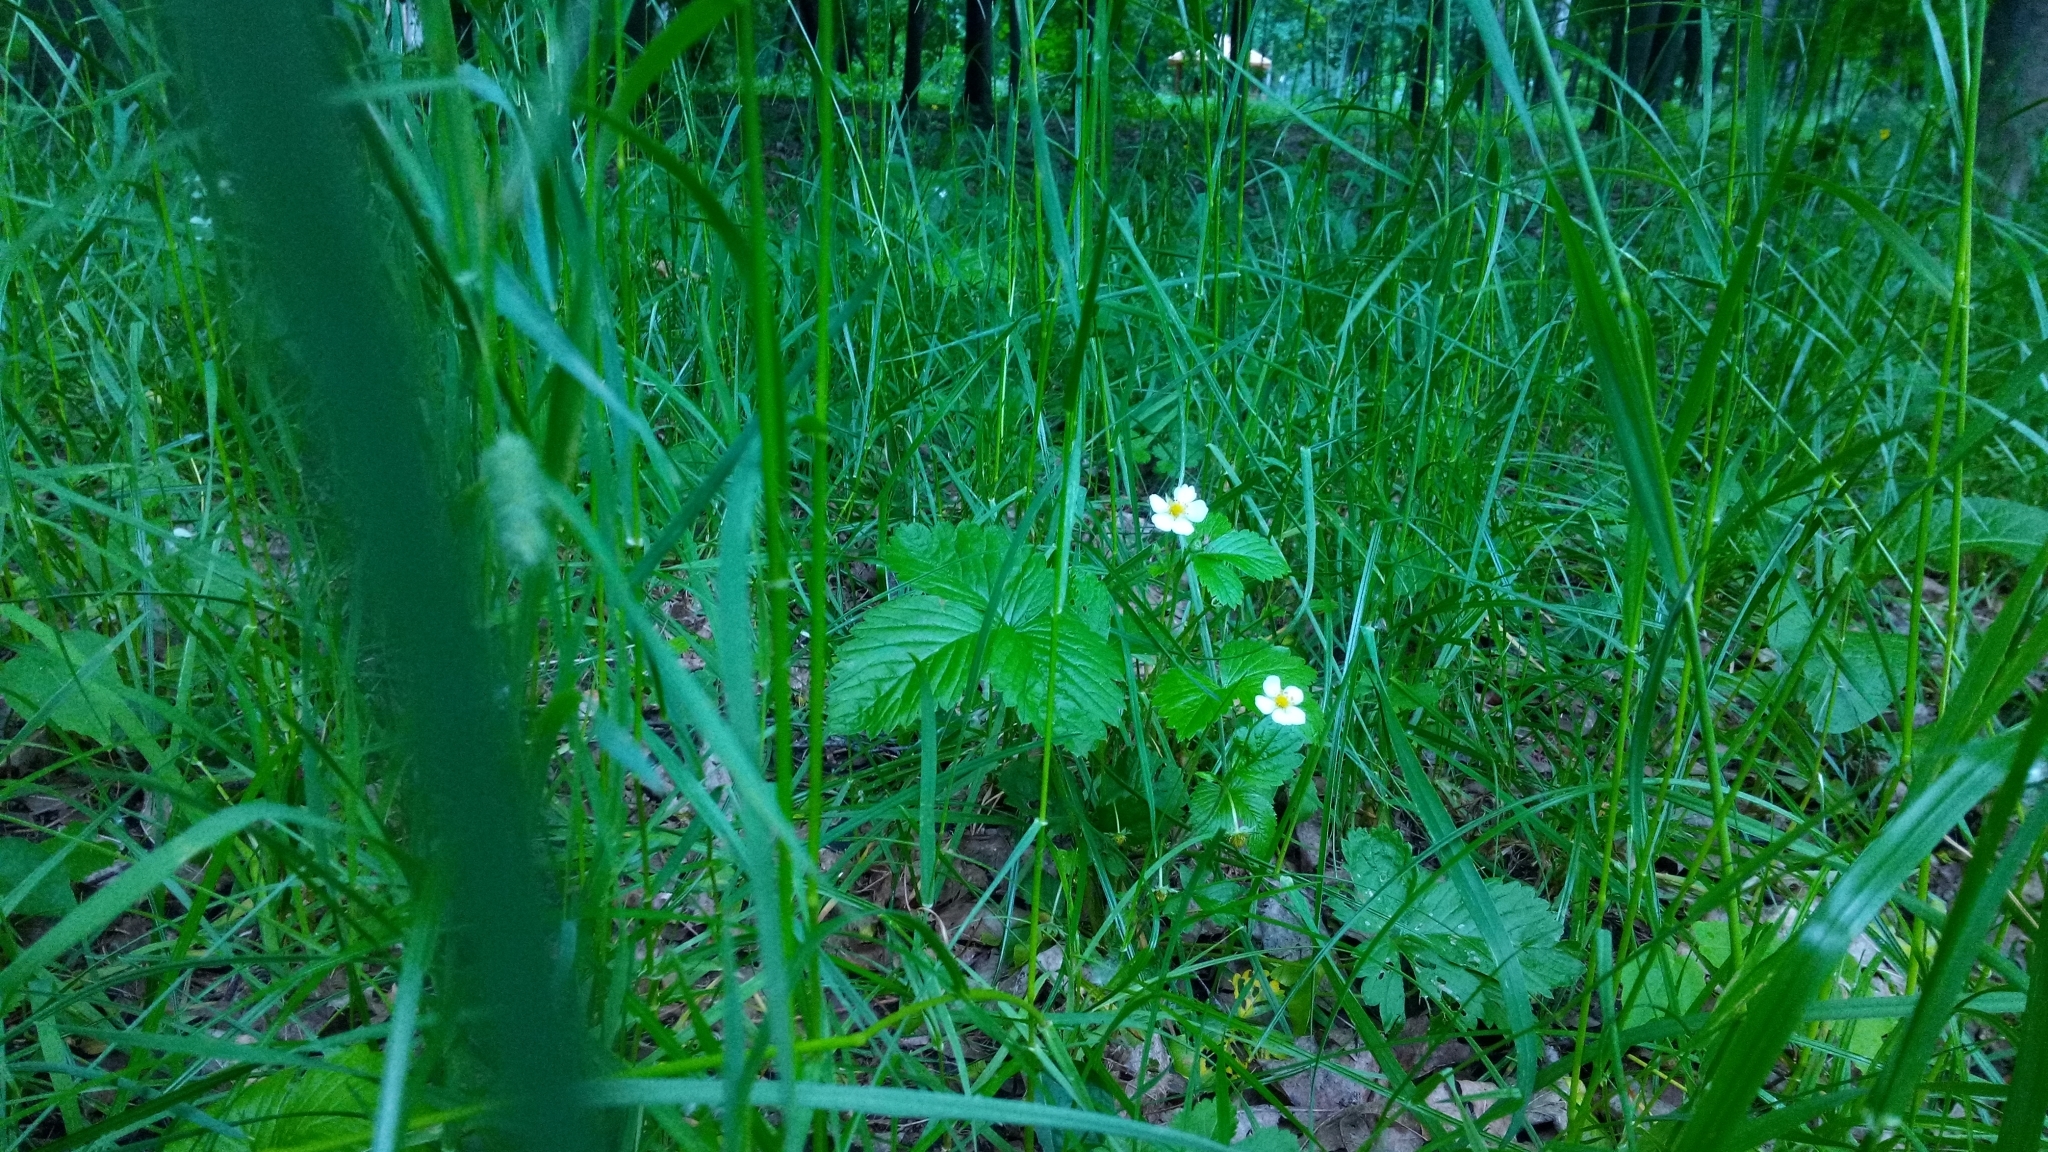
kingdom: Plantae
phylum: Tracheophyta
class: Magnoliopsida
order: Rosales
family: Rosaceae
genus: Fragaria
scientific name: Fragaria vesca
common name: Wild strawberry
